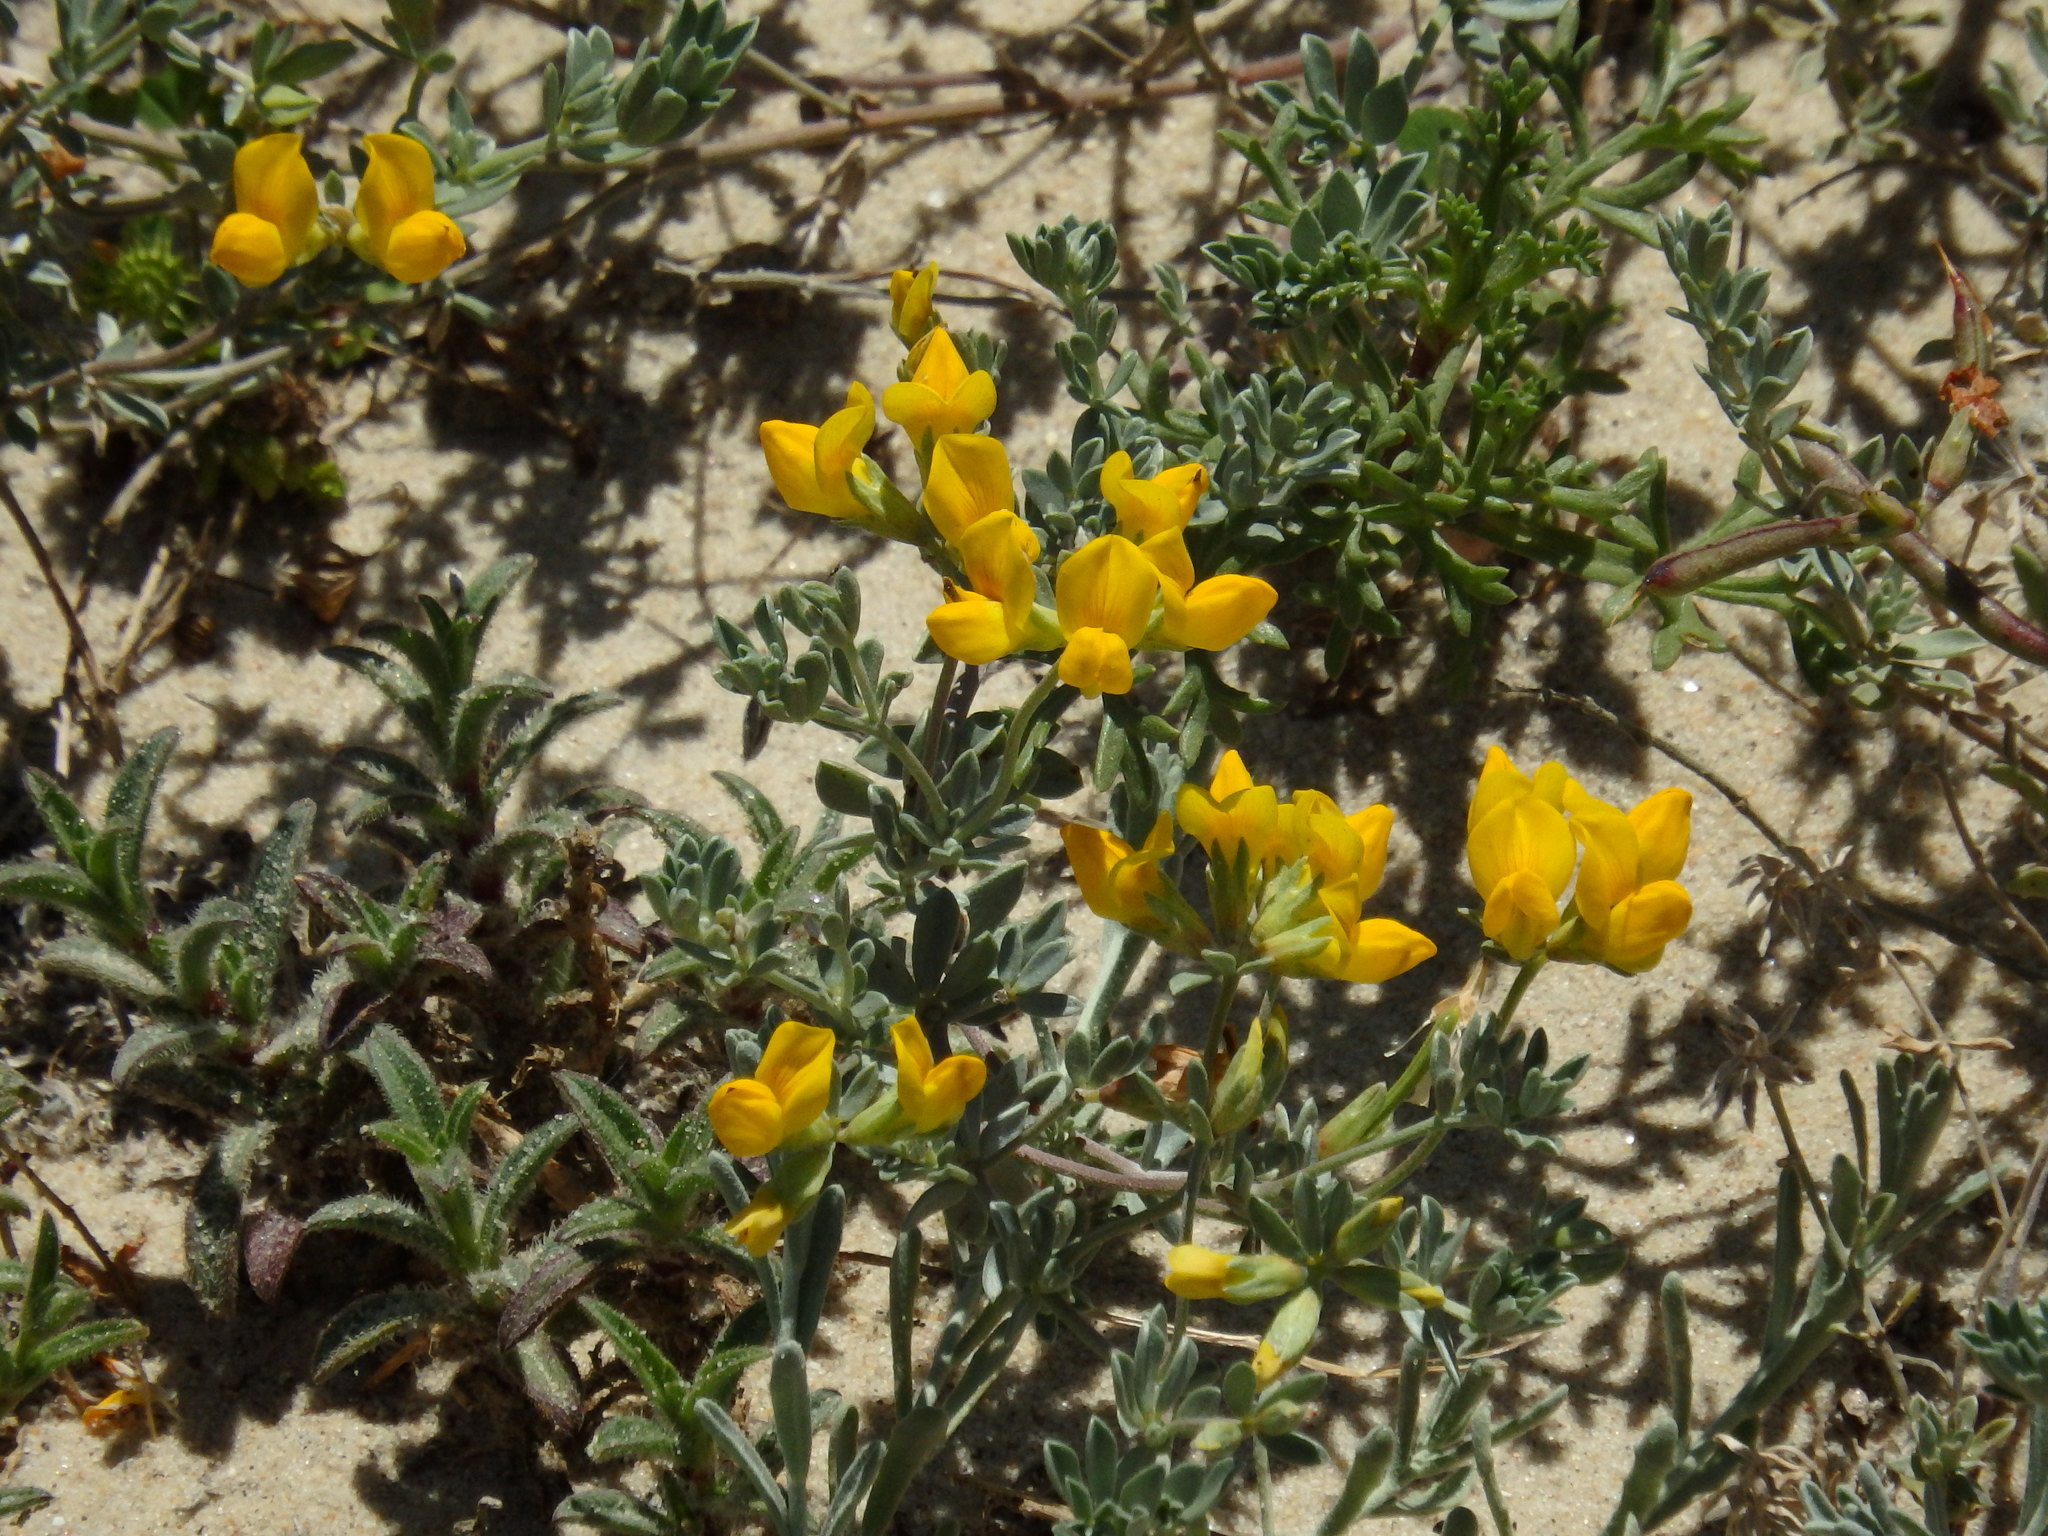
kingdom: Plantae
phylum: Tracheophyta
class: Magnoliopsida
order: Fabales
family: Fabaceae
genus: Lotus
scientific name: Lotus creticus
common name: Cretan bird's-foot trefoil
